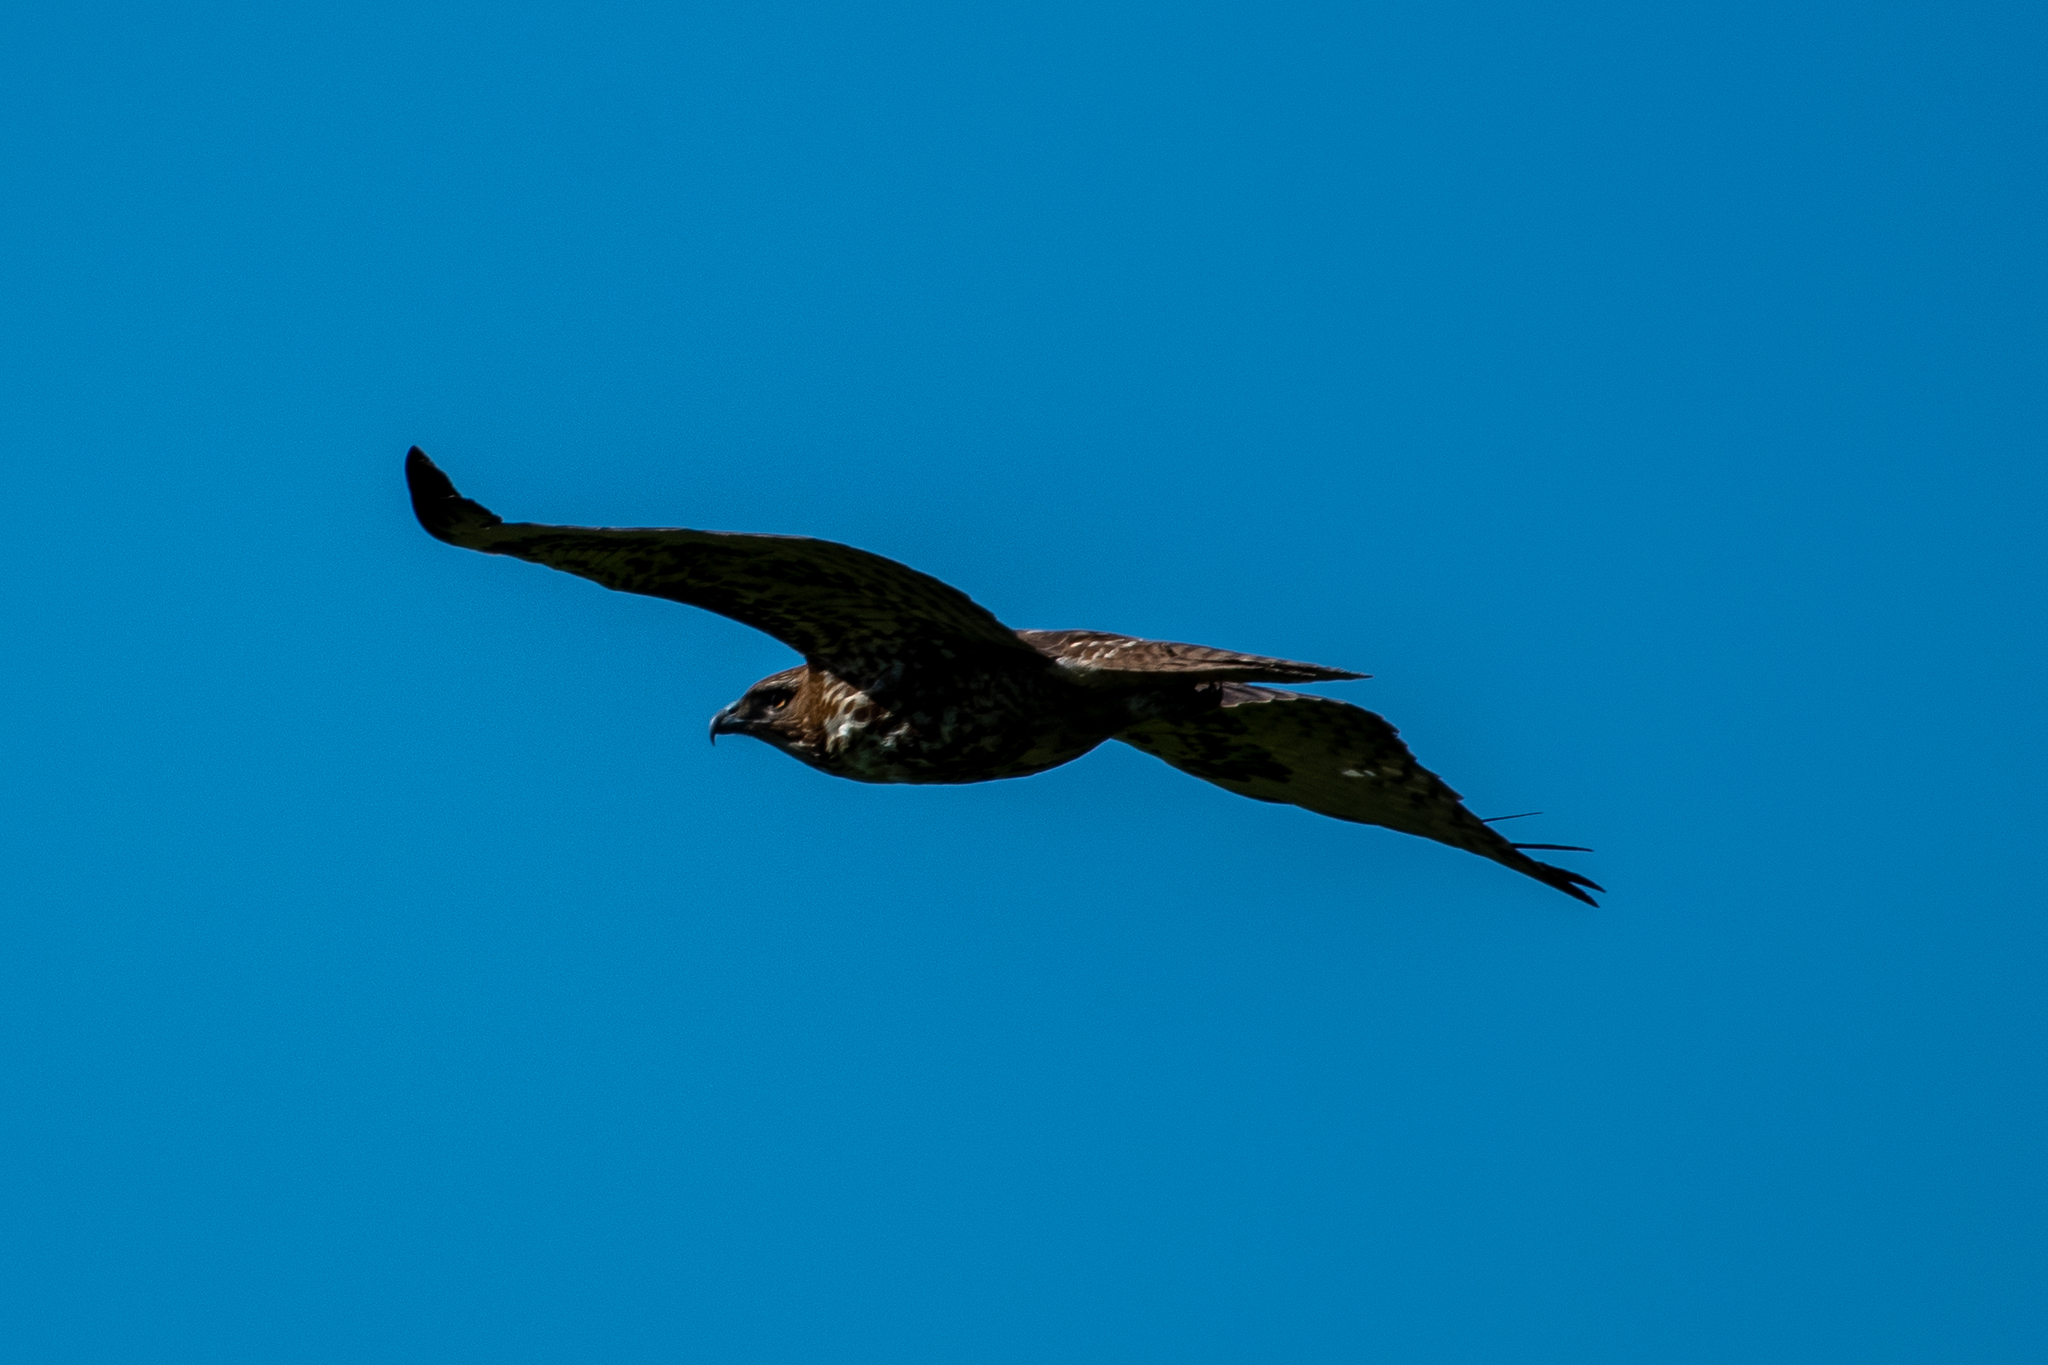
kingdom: Animalia
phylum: Chordata
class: Aves
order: Accipitriformes
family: Accipitridae
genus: Buteo
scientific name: Buteo jamaicensis
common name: Red-tailed hawk
